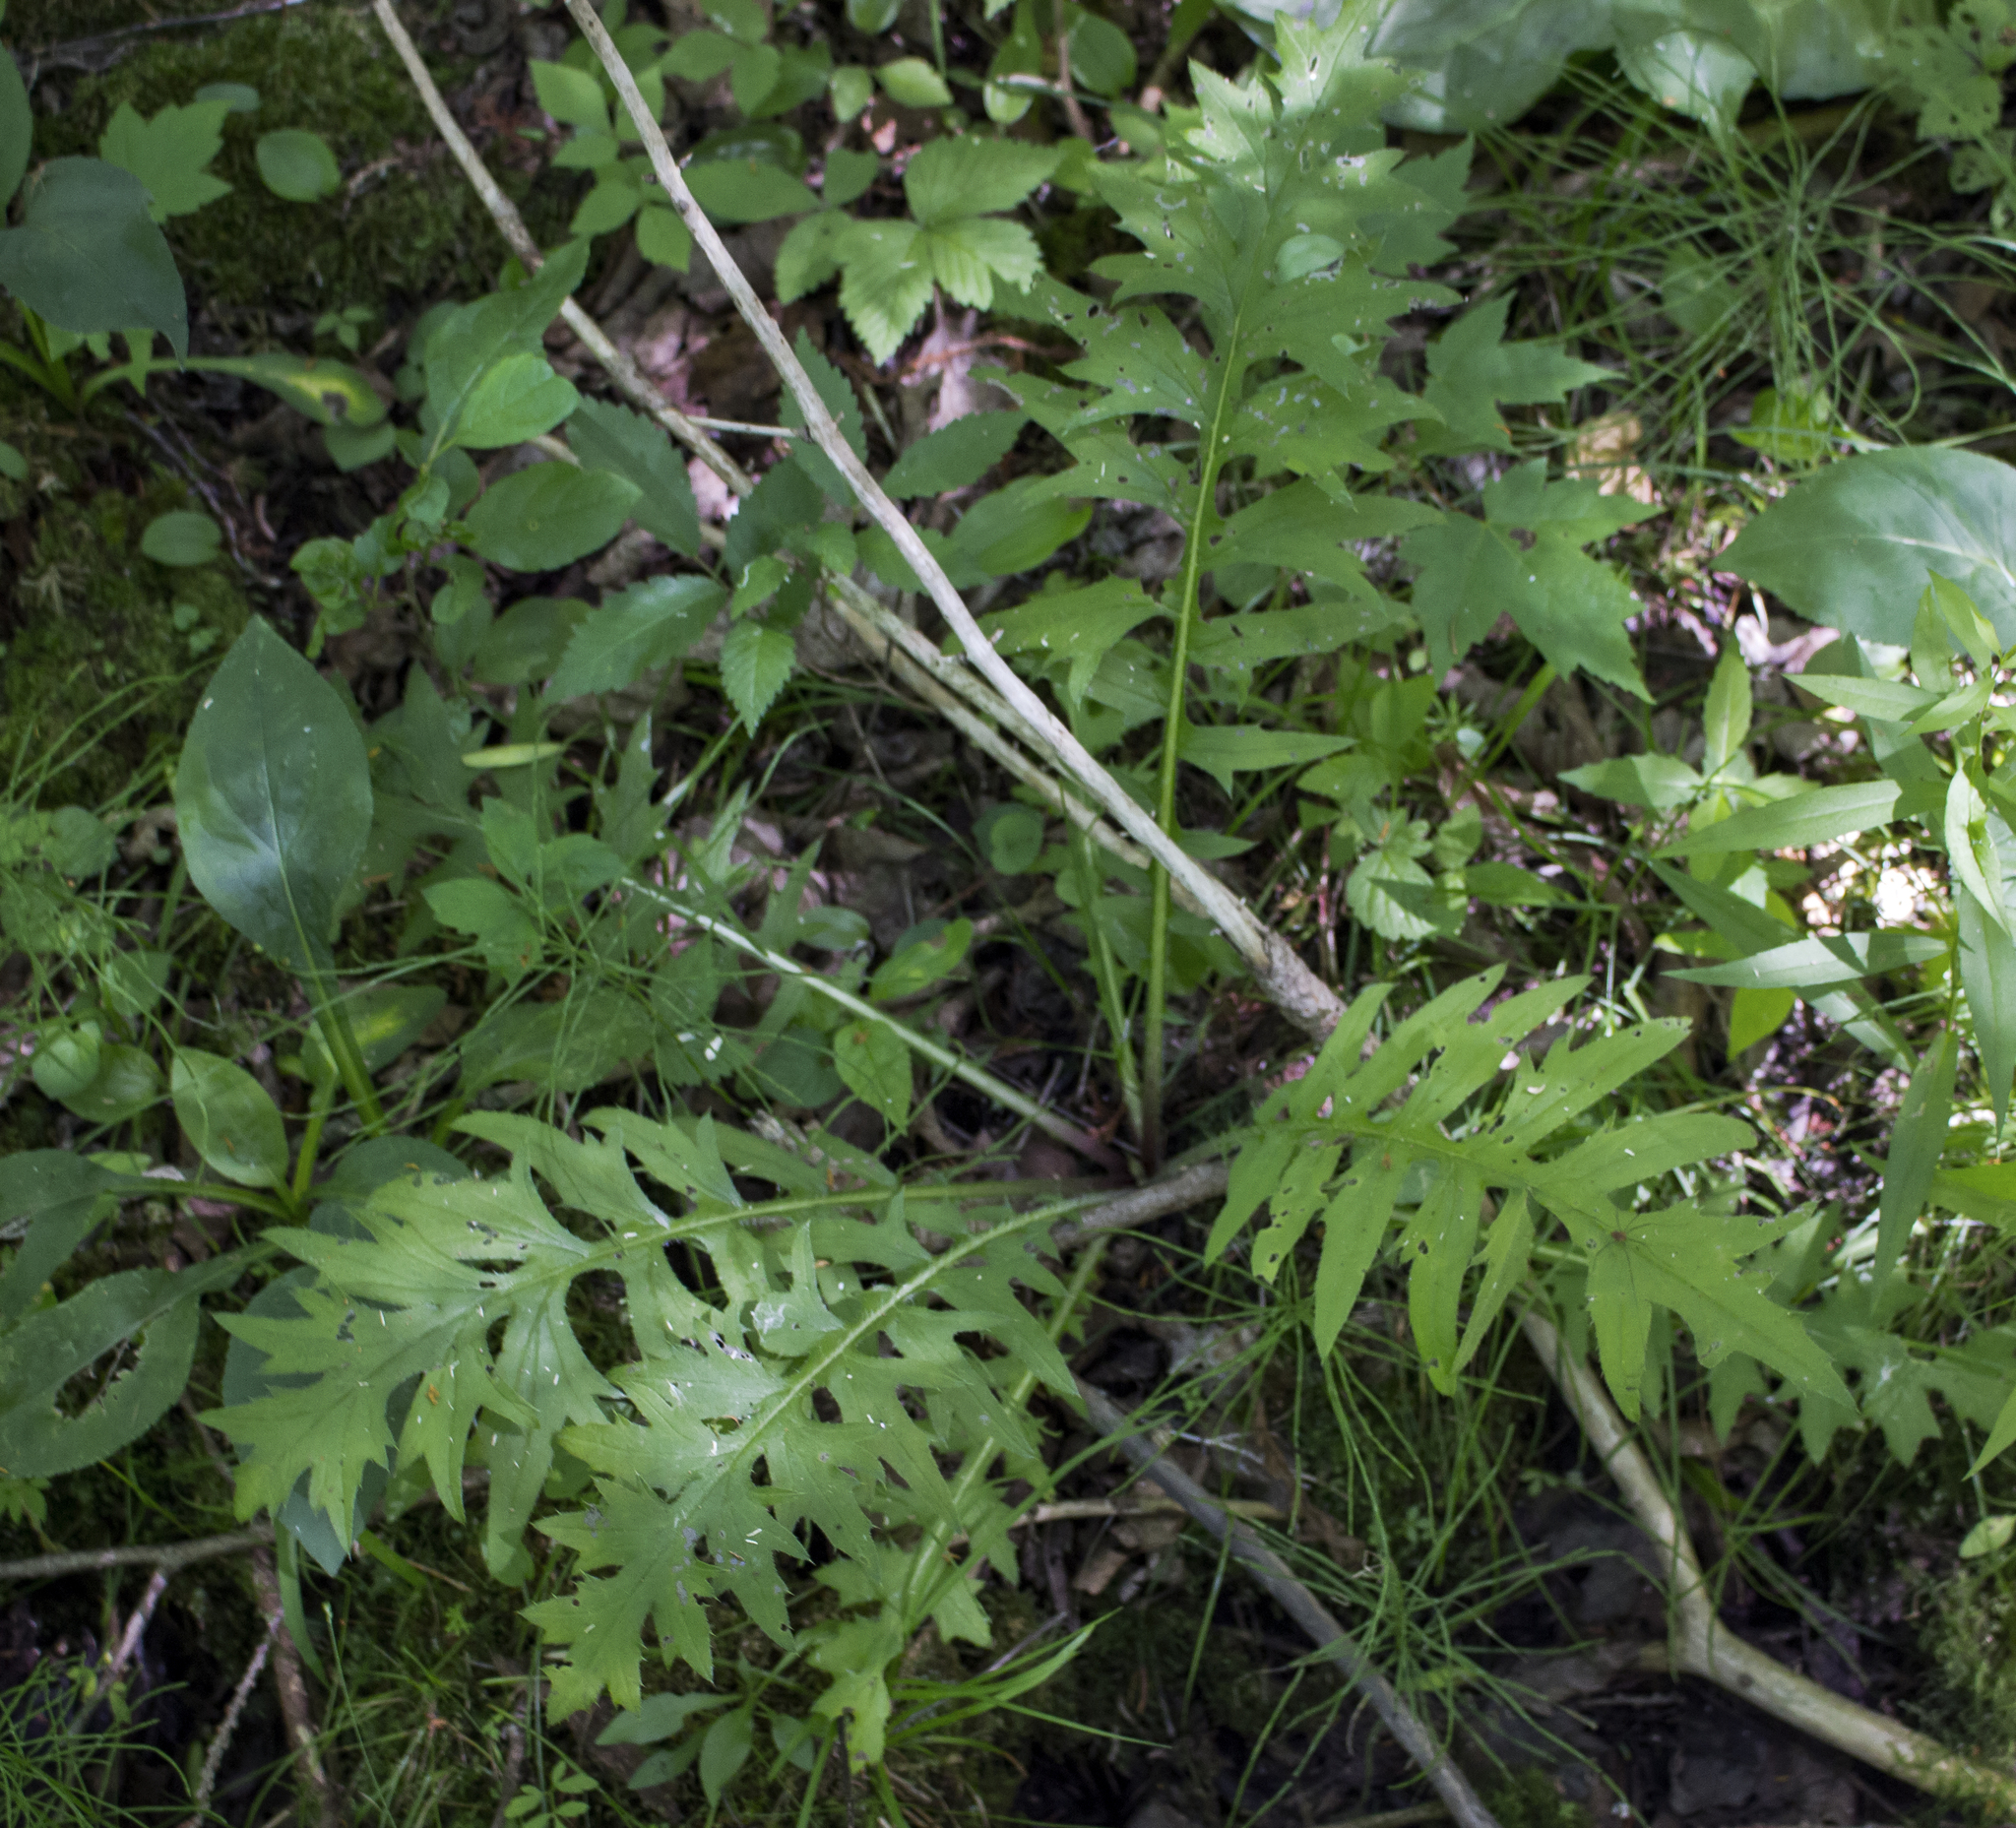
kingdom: Plantae
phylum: Tracheophyta
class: Magnoliopsida
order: Asterales
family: Asteraceae
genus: Cirsium
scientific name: Cirsium muticum
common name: Dunce-nettle
